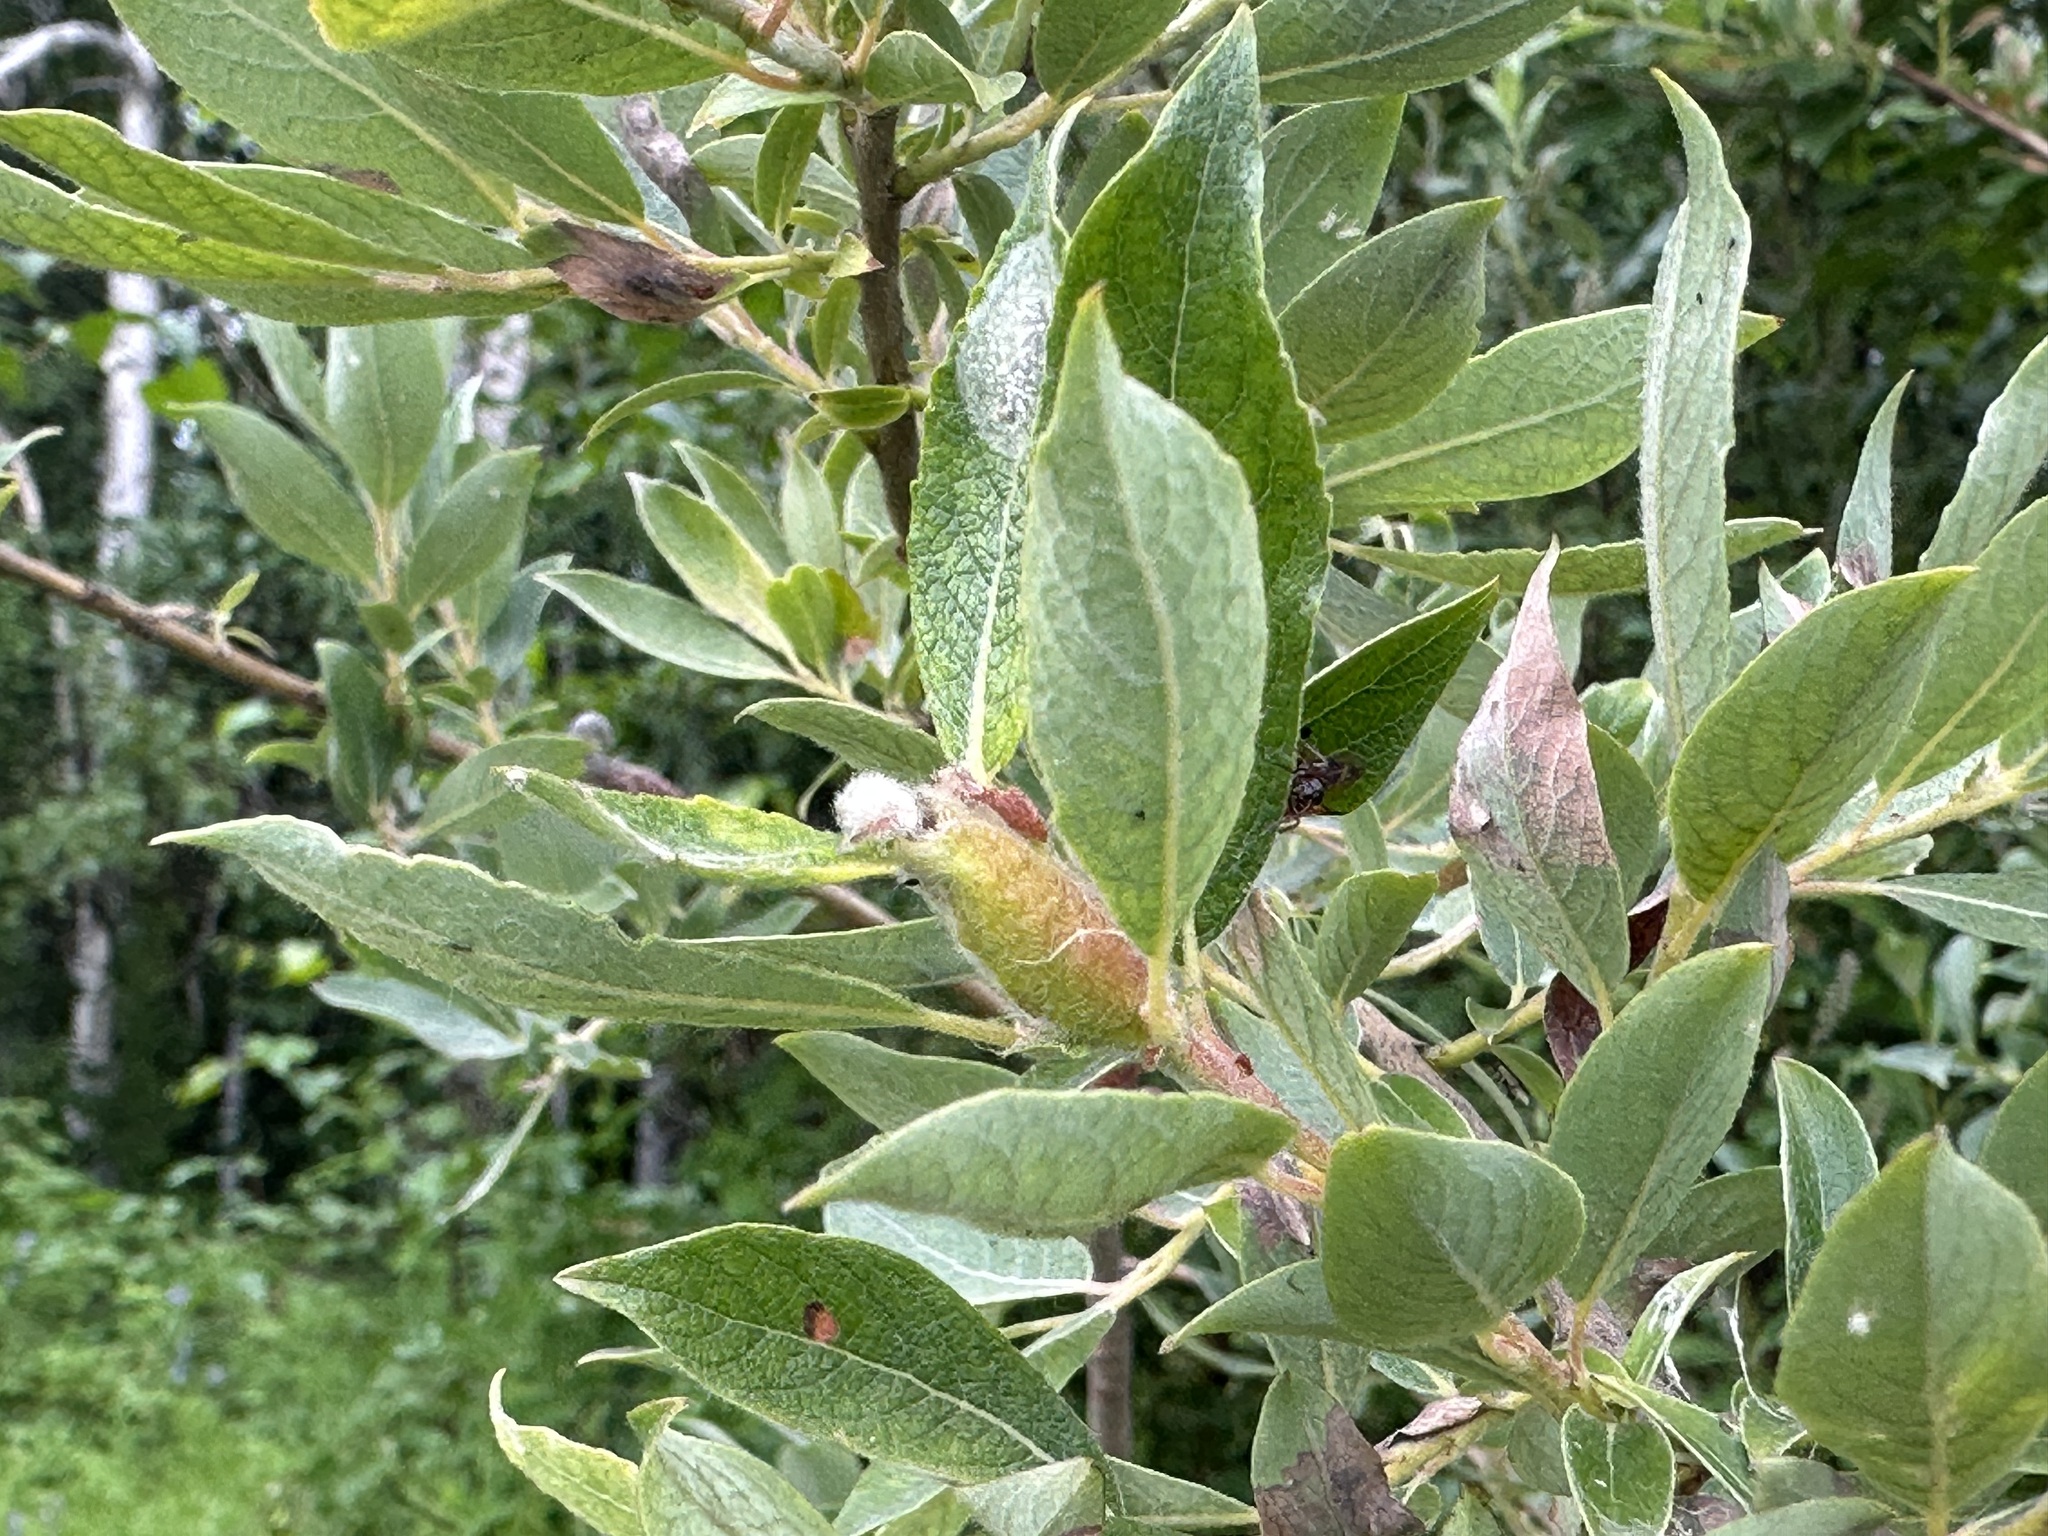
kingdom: Animalia
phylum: Arthropoda
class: Insecta
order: Diptera
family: Cecidomyiidae
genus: Thecodiplosis
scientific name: Thecodiplosis pinirigidae
